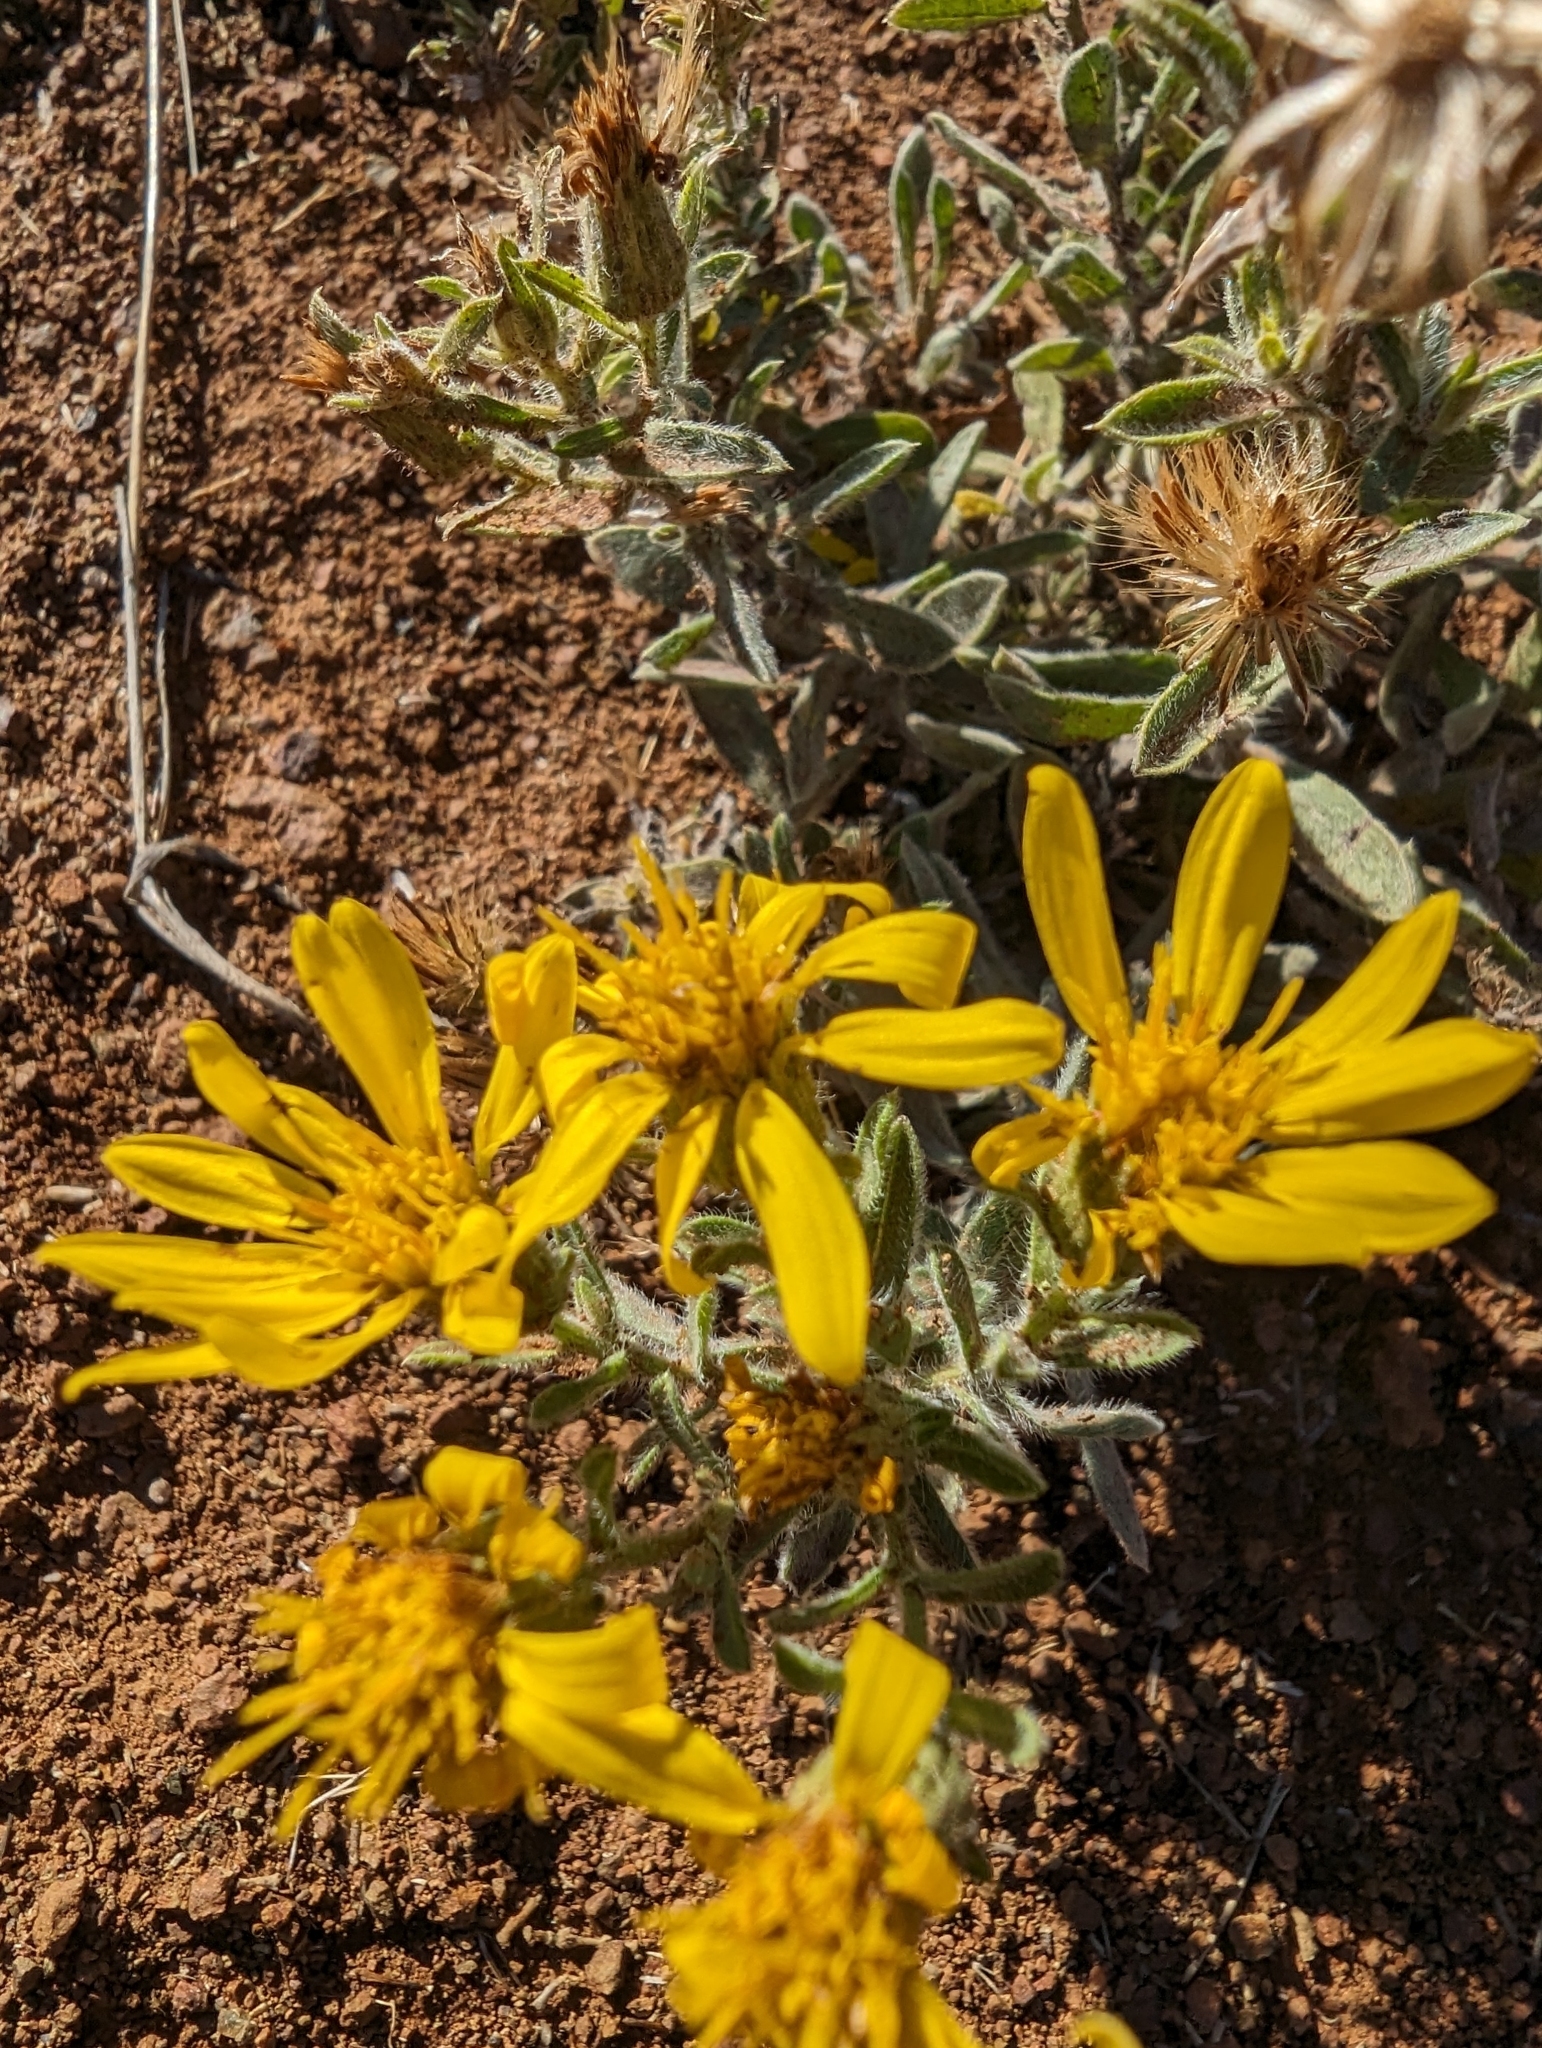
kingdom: Plantae
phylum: Tracheophyta
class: Magnoliopsida
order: Asterales
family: Asteraceae
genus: Heterotheca
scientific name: Heterotheca villosissima
